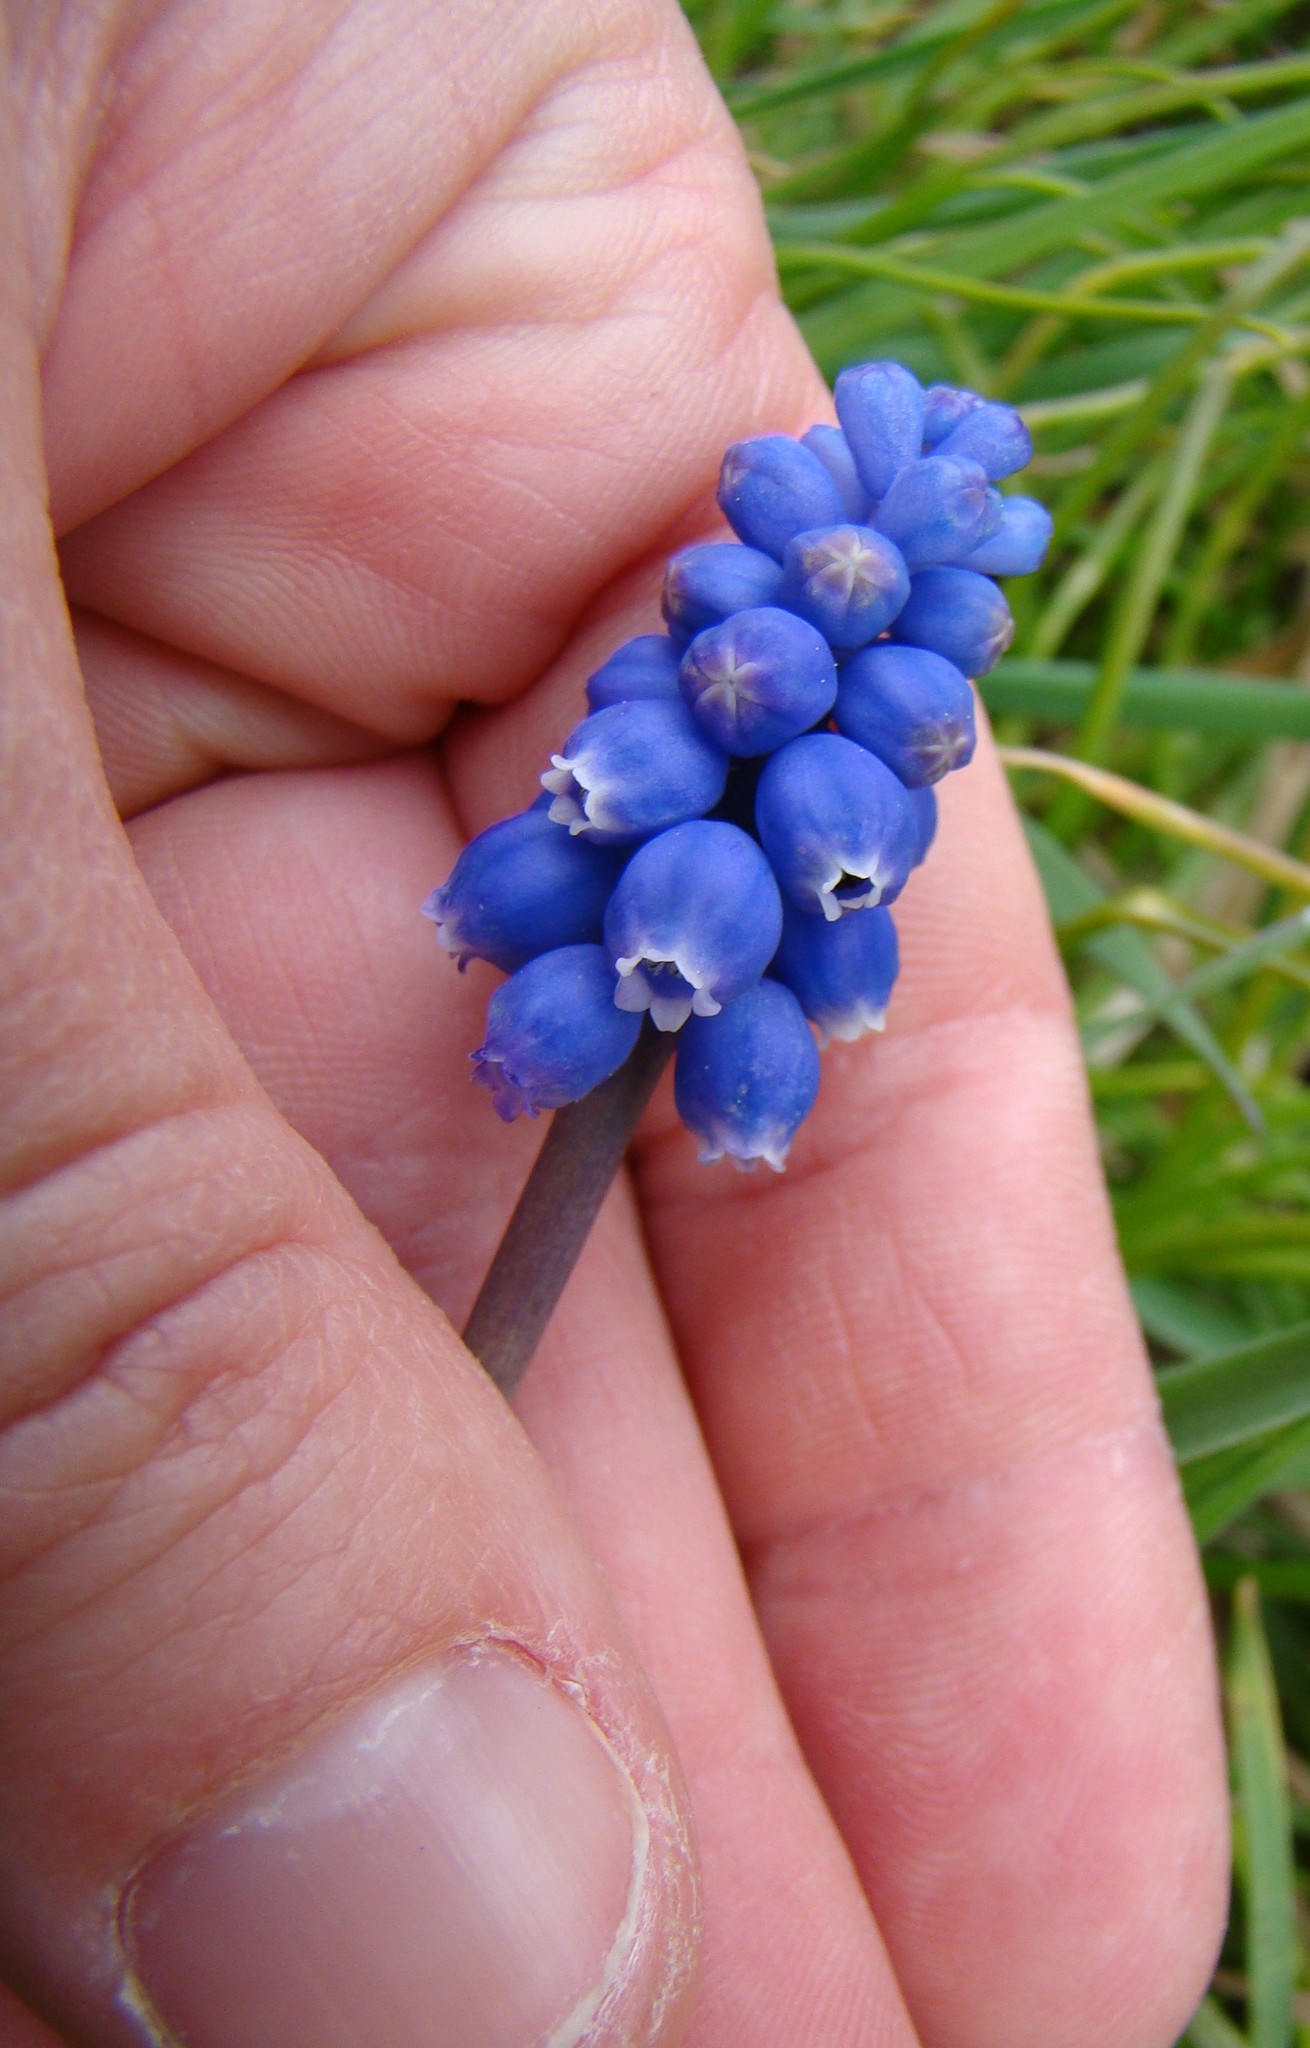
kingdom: Plantae
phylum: Tracheophyta
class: Liliopsida
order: Asparagales
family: Asparagaceae
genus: Muscari
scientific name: Muscari armeniacum
